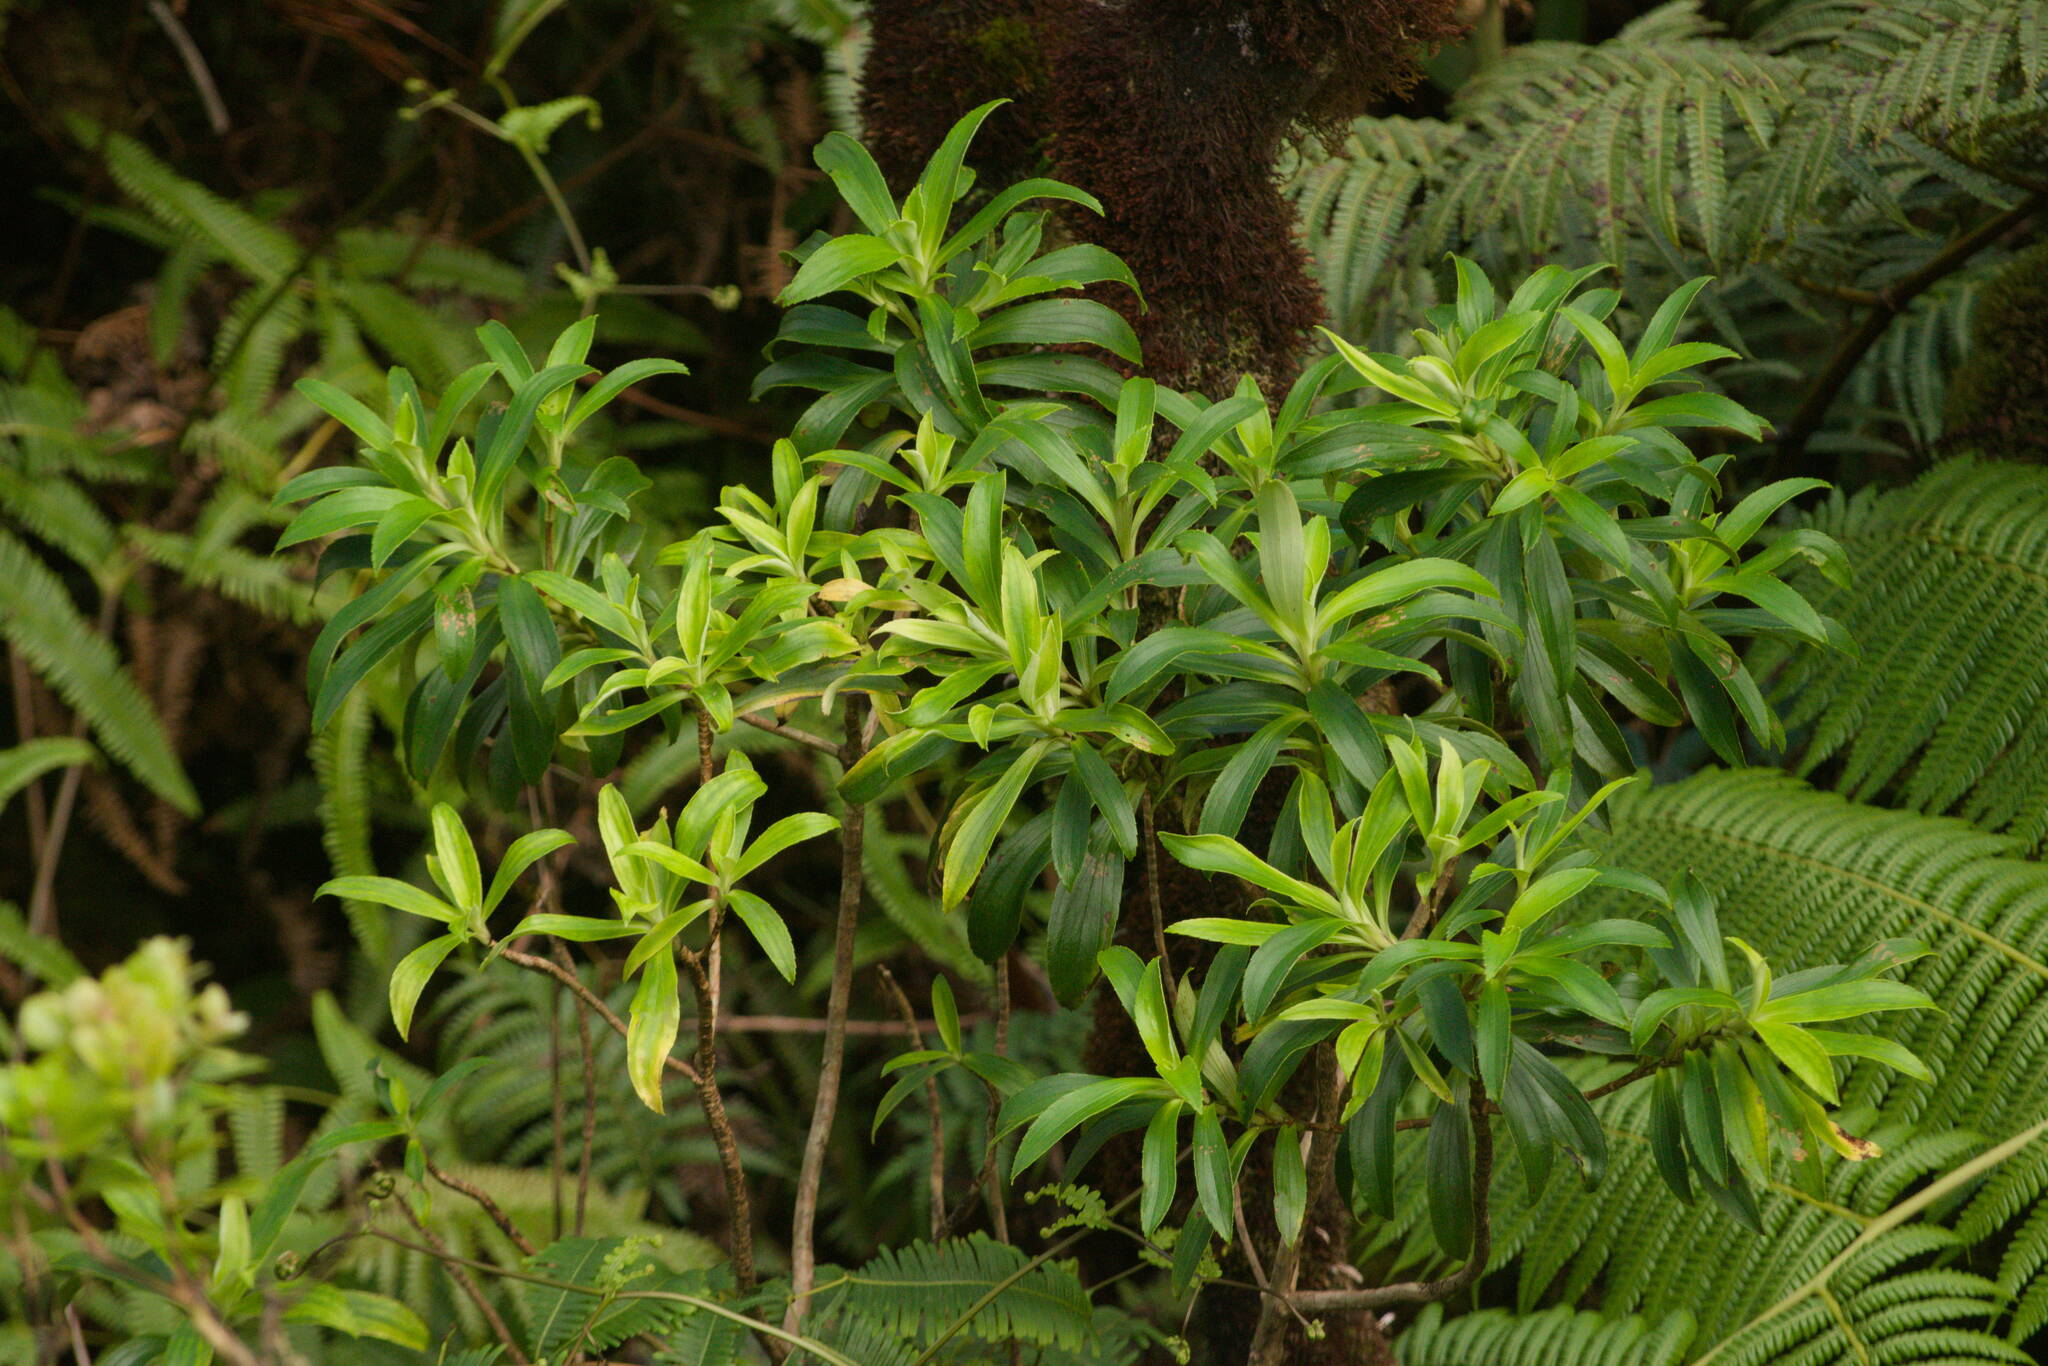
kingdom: Plantae
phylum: Tracheophyta
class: Magnoliopsida
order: Asterales
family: Asteraceae
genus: Dubautia
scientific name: Dubautia laxa
